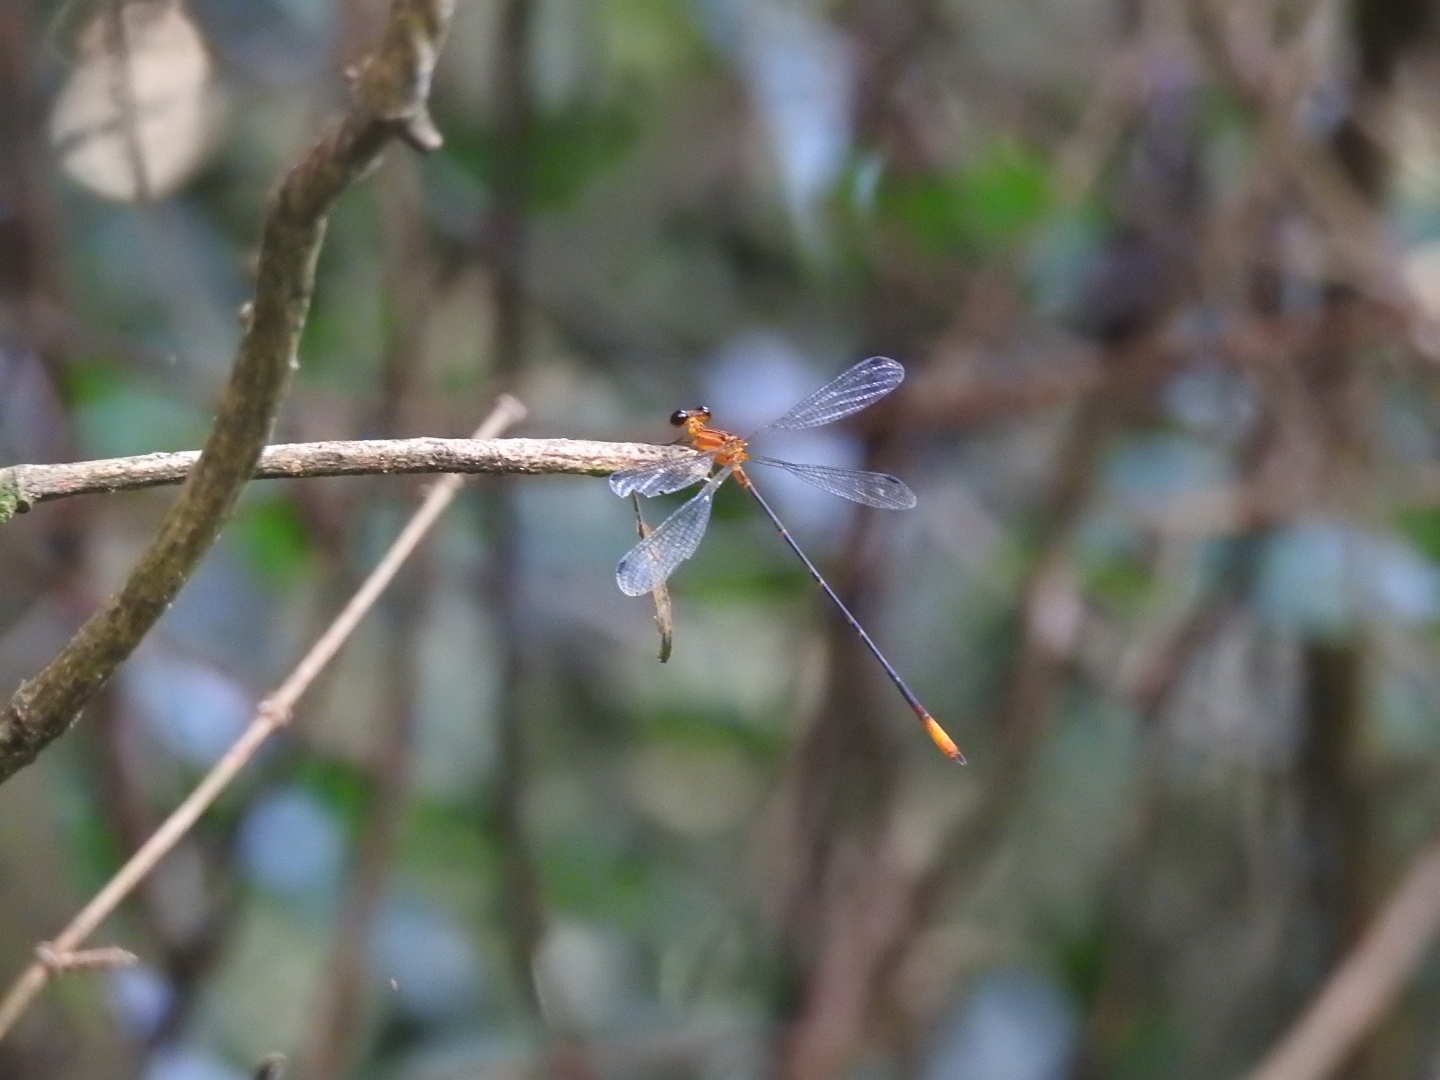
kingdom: Animalia
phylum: Arthropoda
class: Insecta
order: Odonata
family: Heteragrionidae
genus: Heteragrion
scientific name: Heteragrion aurantiacum
